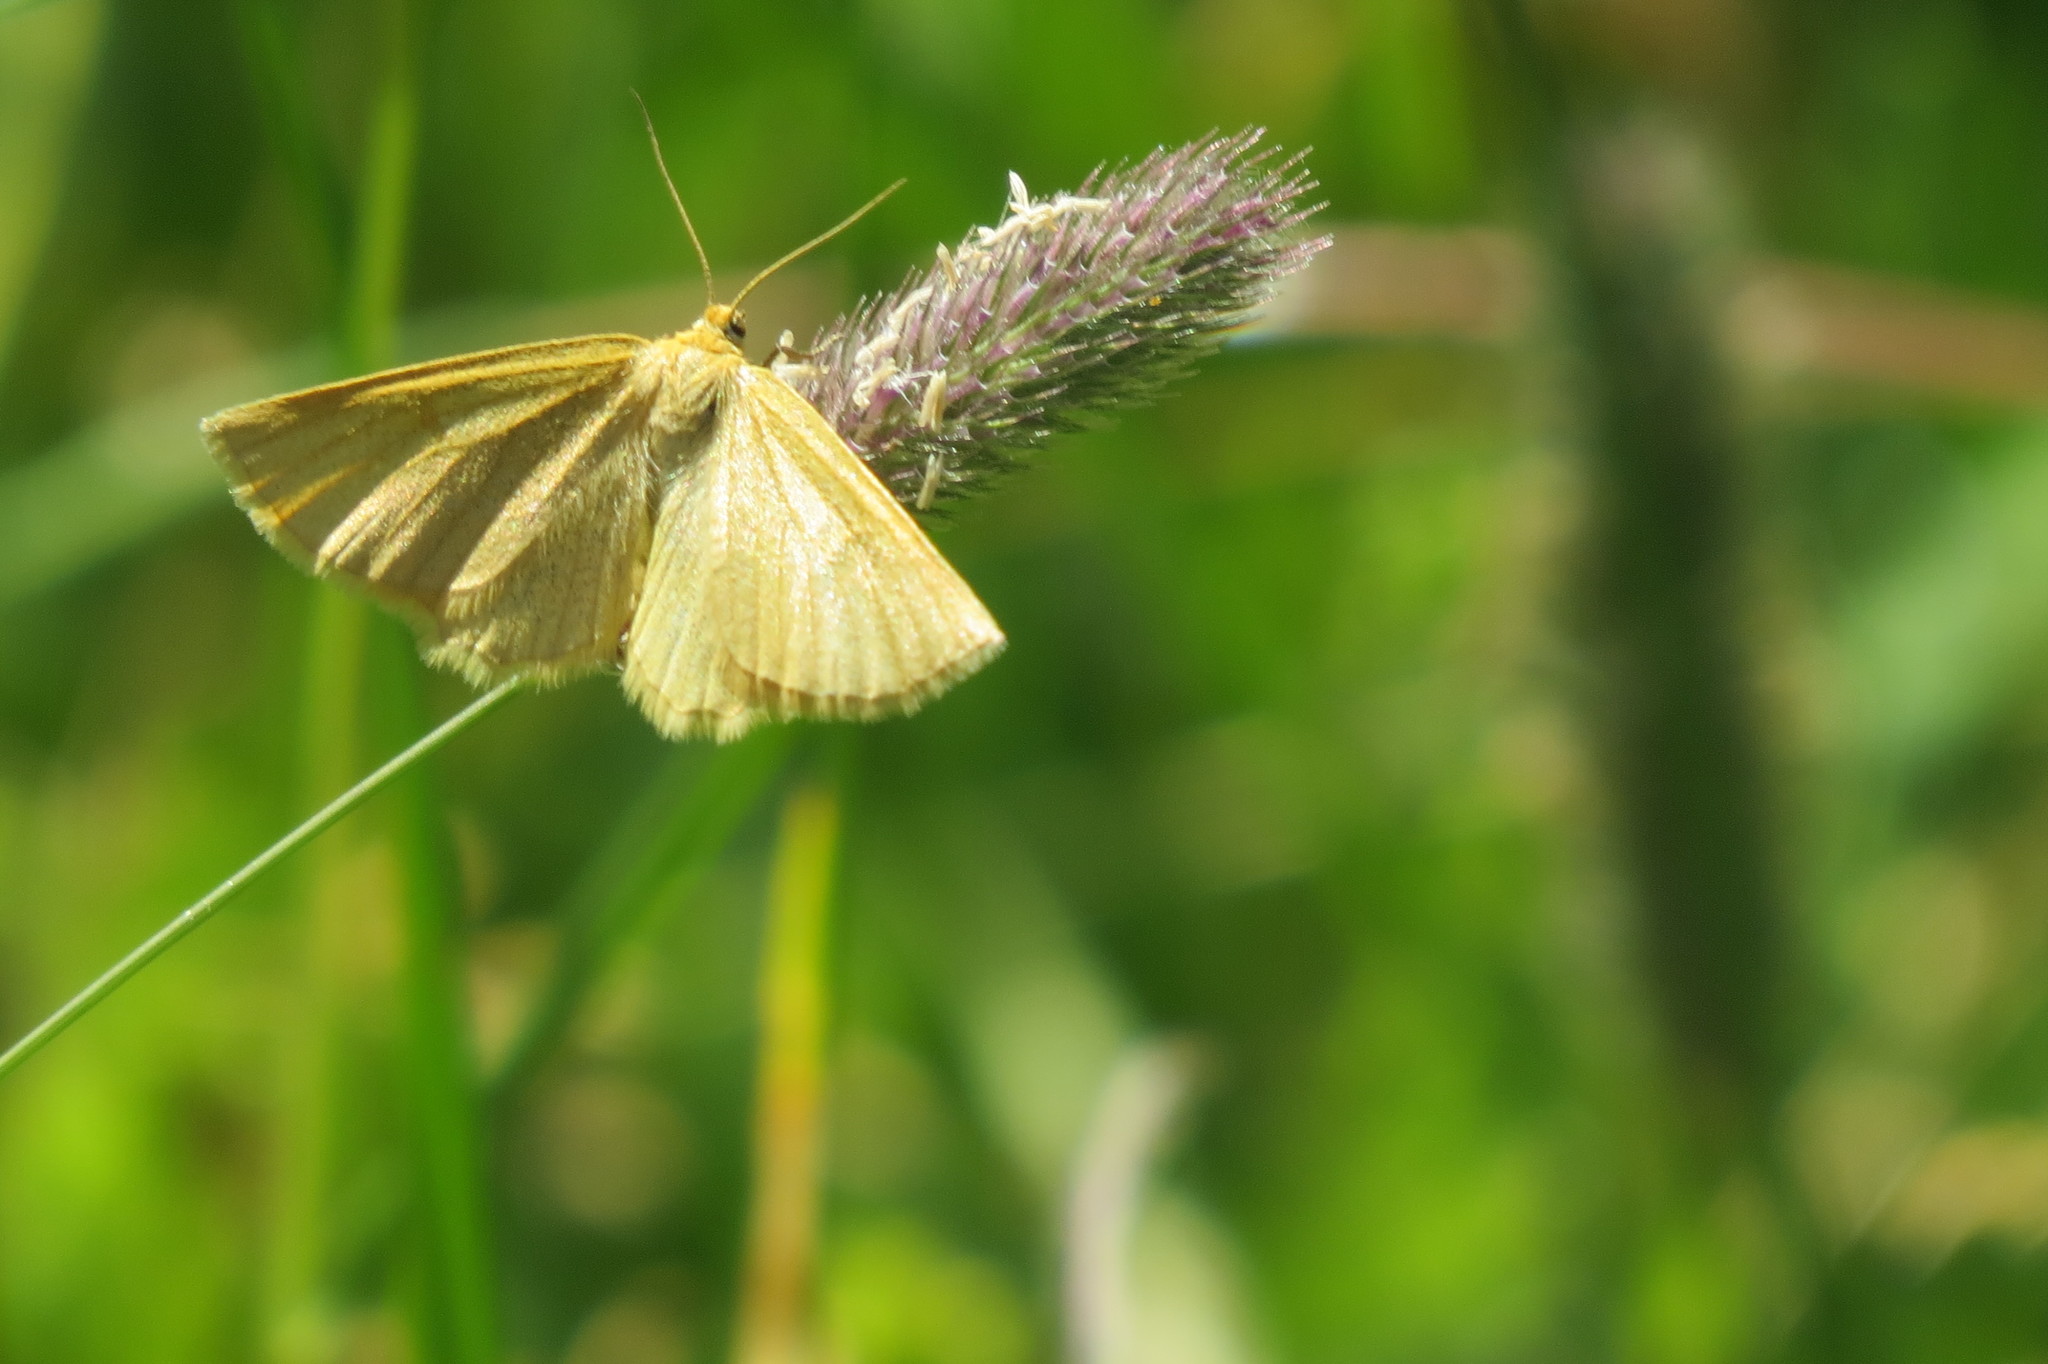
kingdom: Animalia
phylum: Arthropoda
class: Insecta
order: Lepidoptera
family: Geometridae
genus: Crocota
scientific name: Crocota tinctaria
